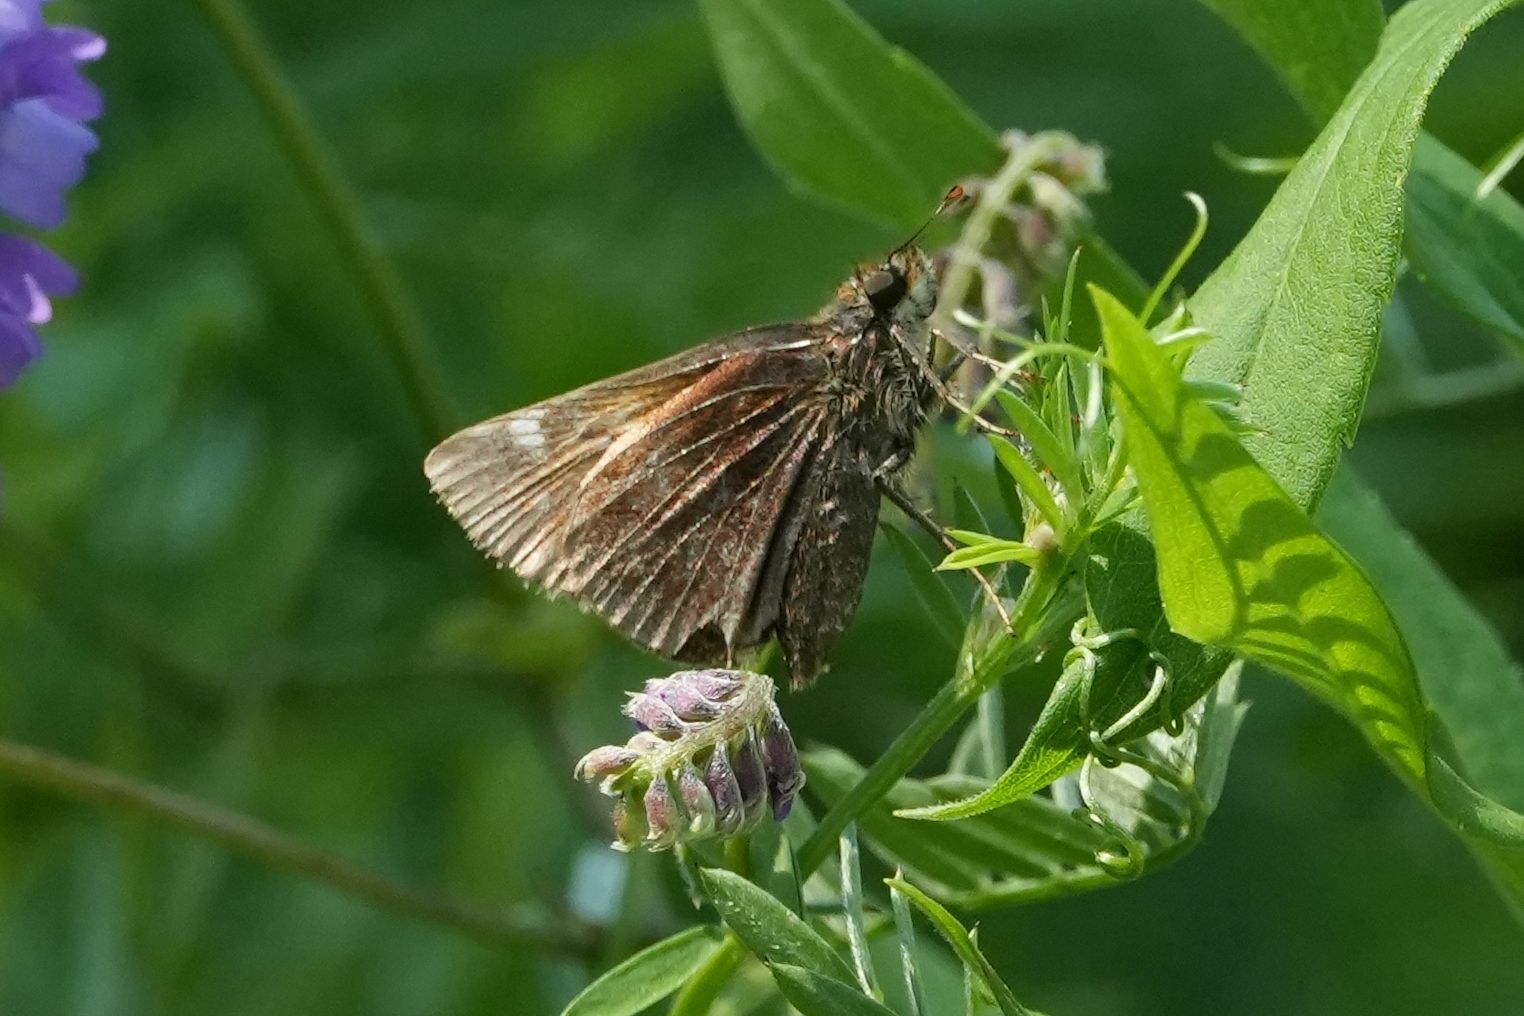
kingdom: Animalia
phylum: Arthropoda
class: Insecta
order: Lepidoptera
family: Hesperiidae
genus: Lon
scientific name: Lon hobomok
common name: Hobomok skipper
